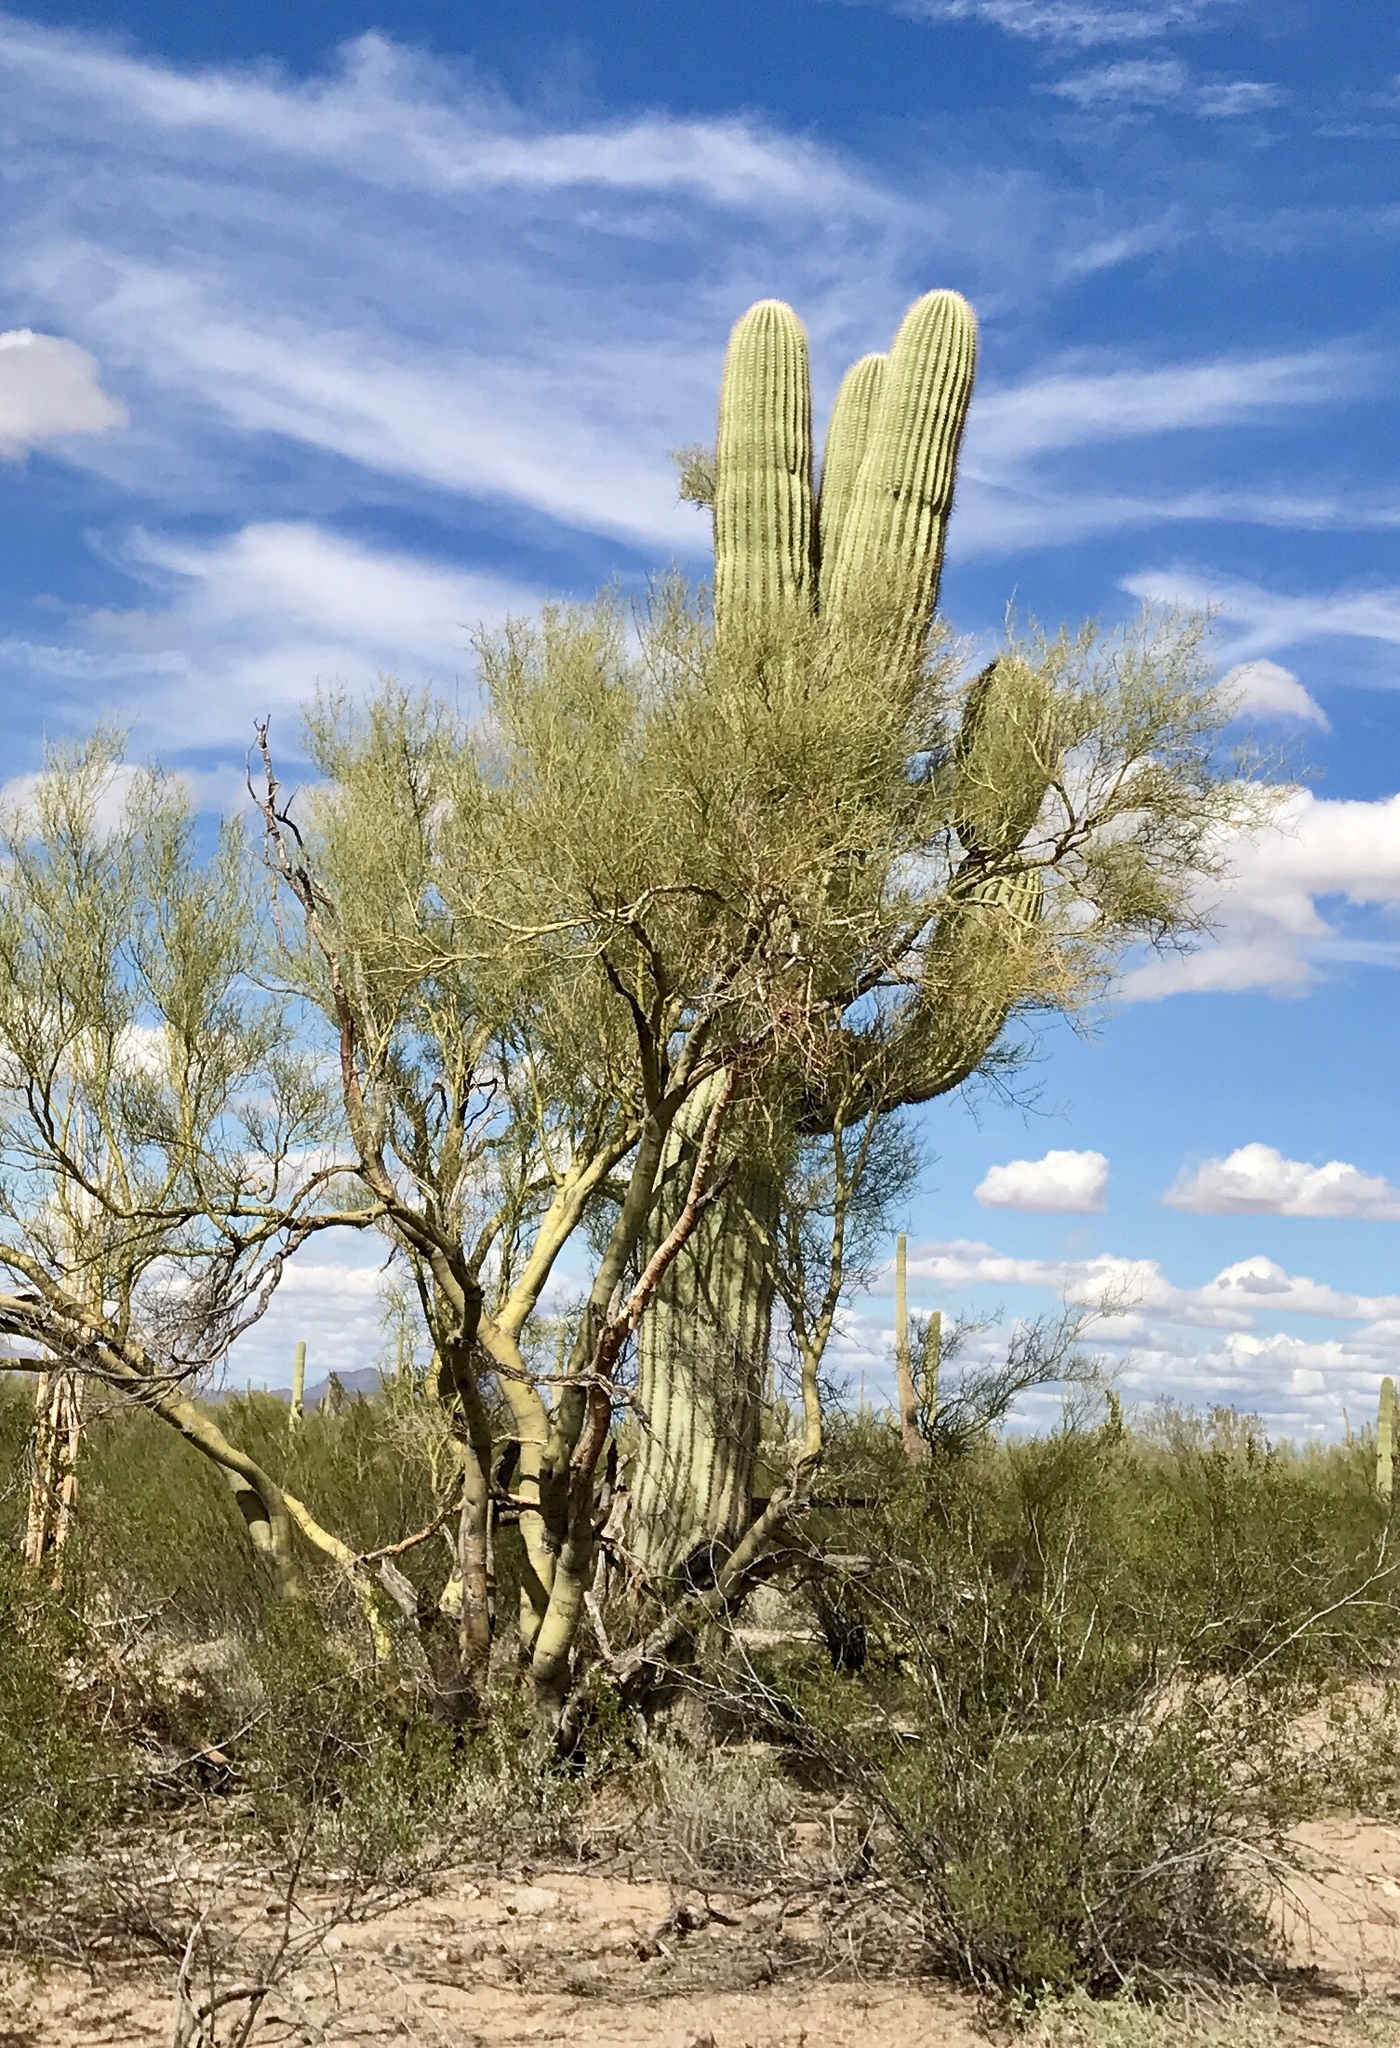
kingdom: Plantae
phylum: Tracheophyta
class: Magnoliopsida
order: Fabales
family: Fabaceae
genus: Parkinsonia
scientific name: Parkinsonia microphylla
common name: Yellow paloverde
